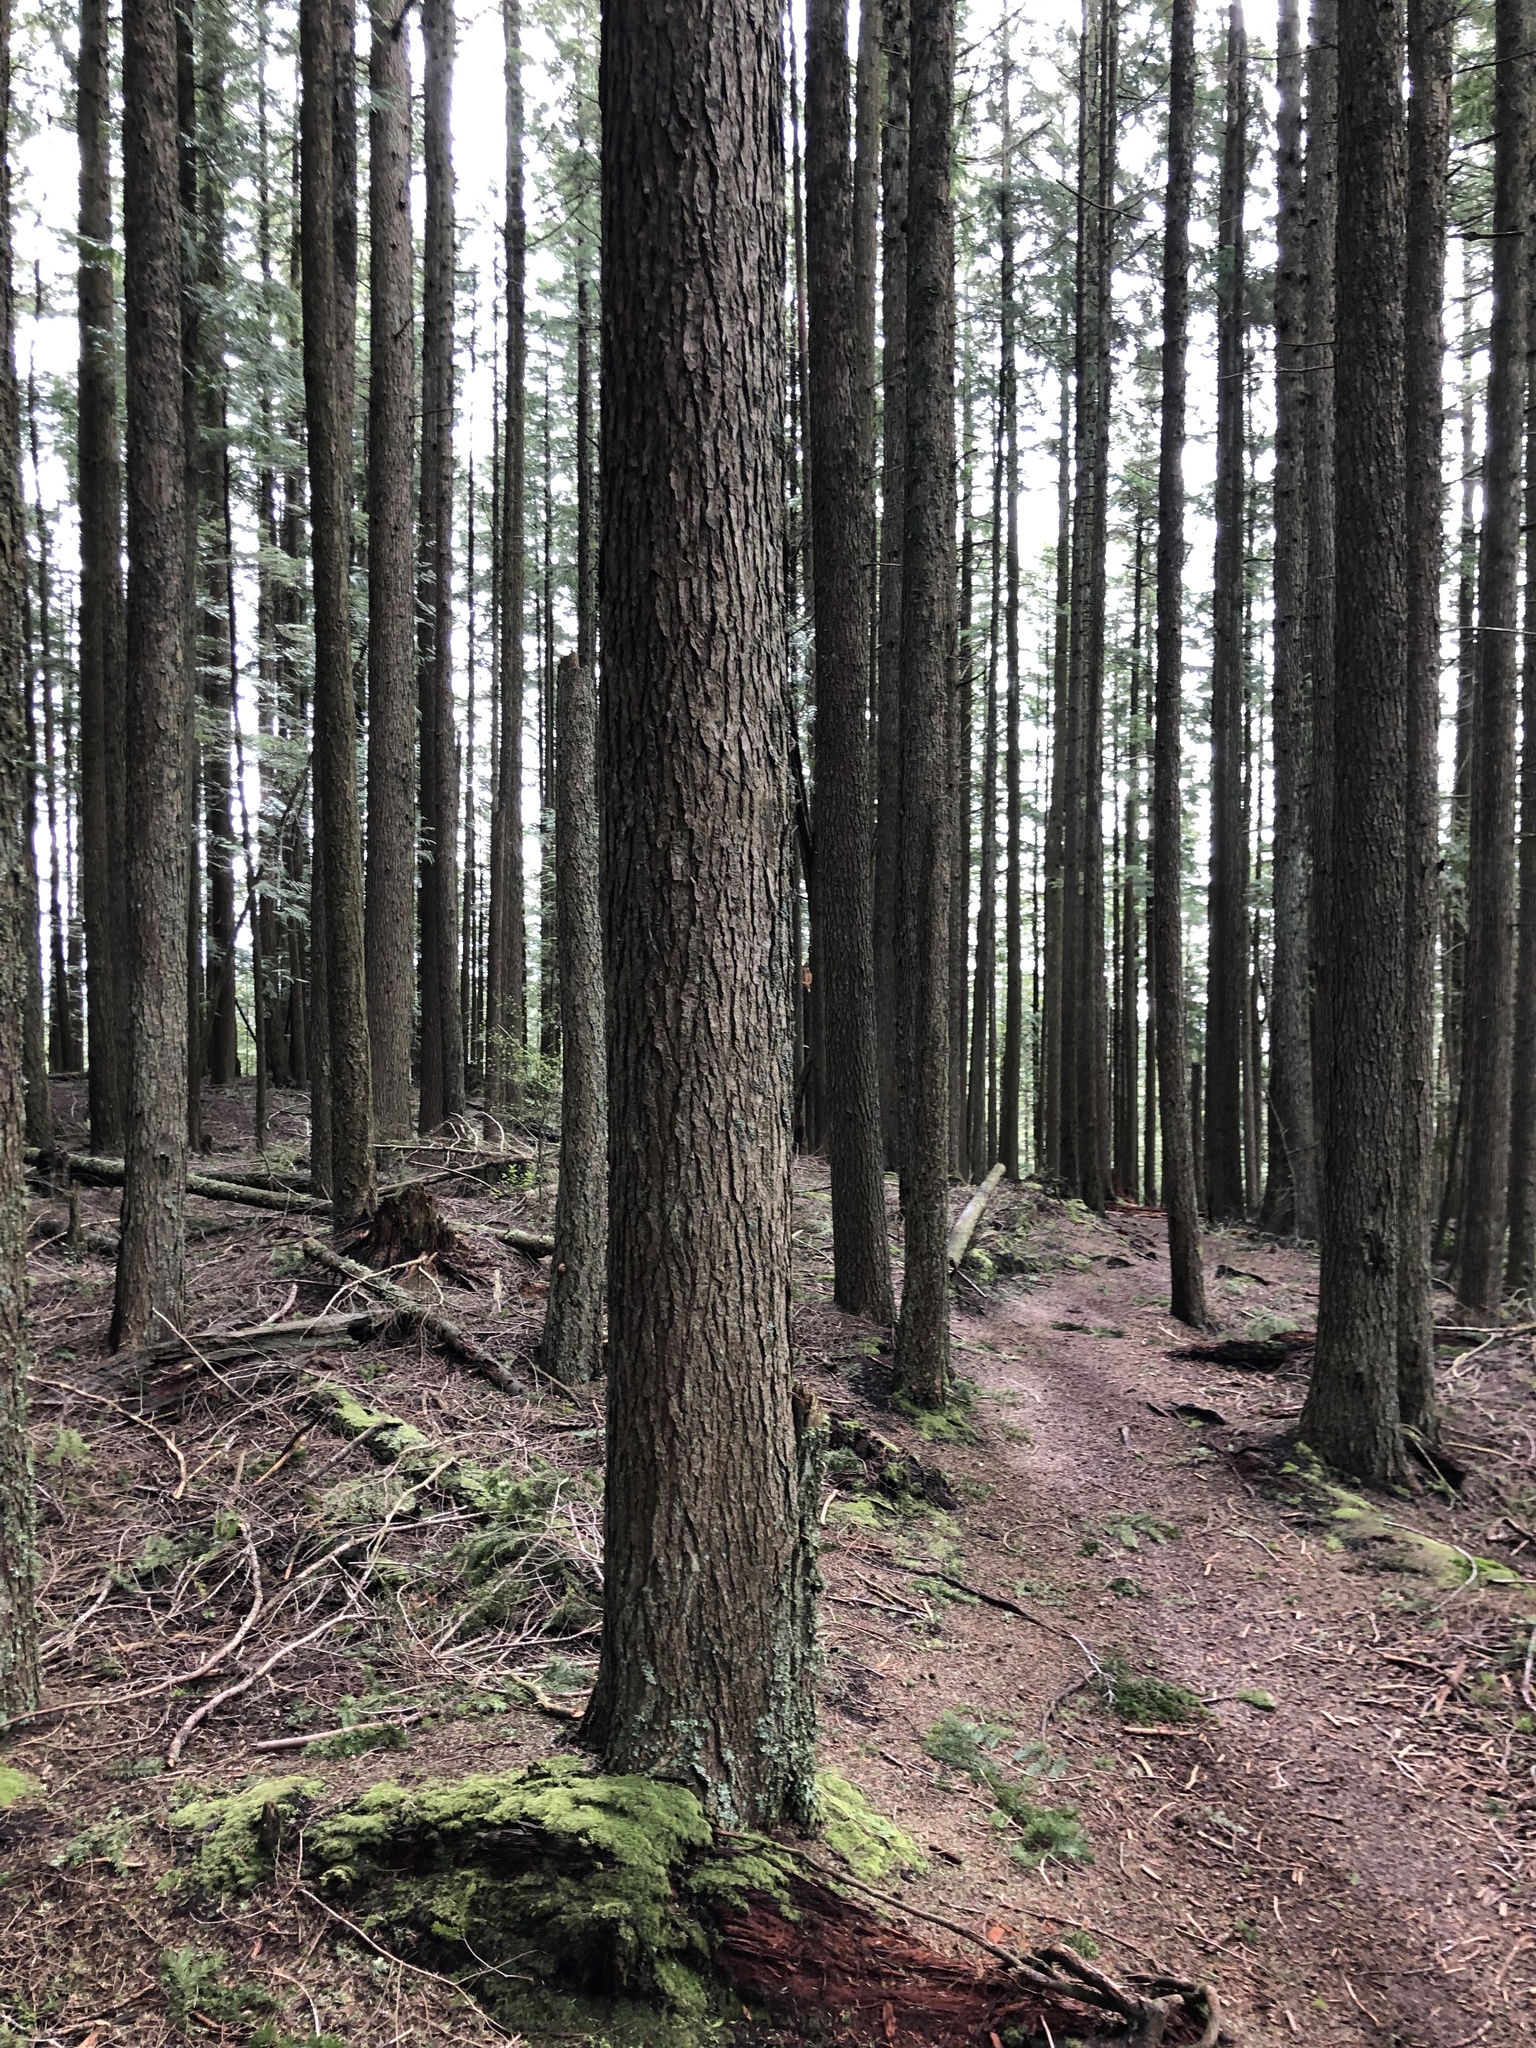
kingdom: Plantae
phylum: Tracheophyta
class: Pinopsida
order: Pinales
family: Pinaceae
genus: Tsuga
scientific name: Tsuga heterophylla
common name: Western hemlock
